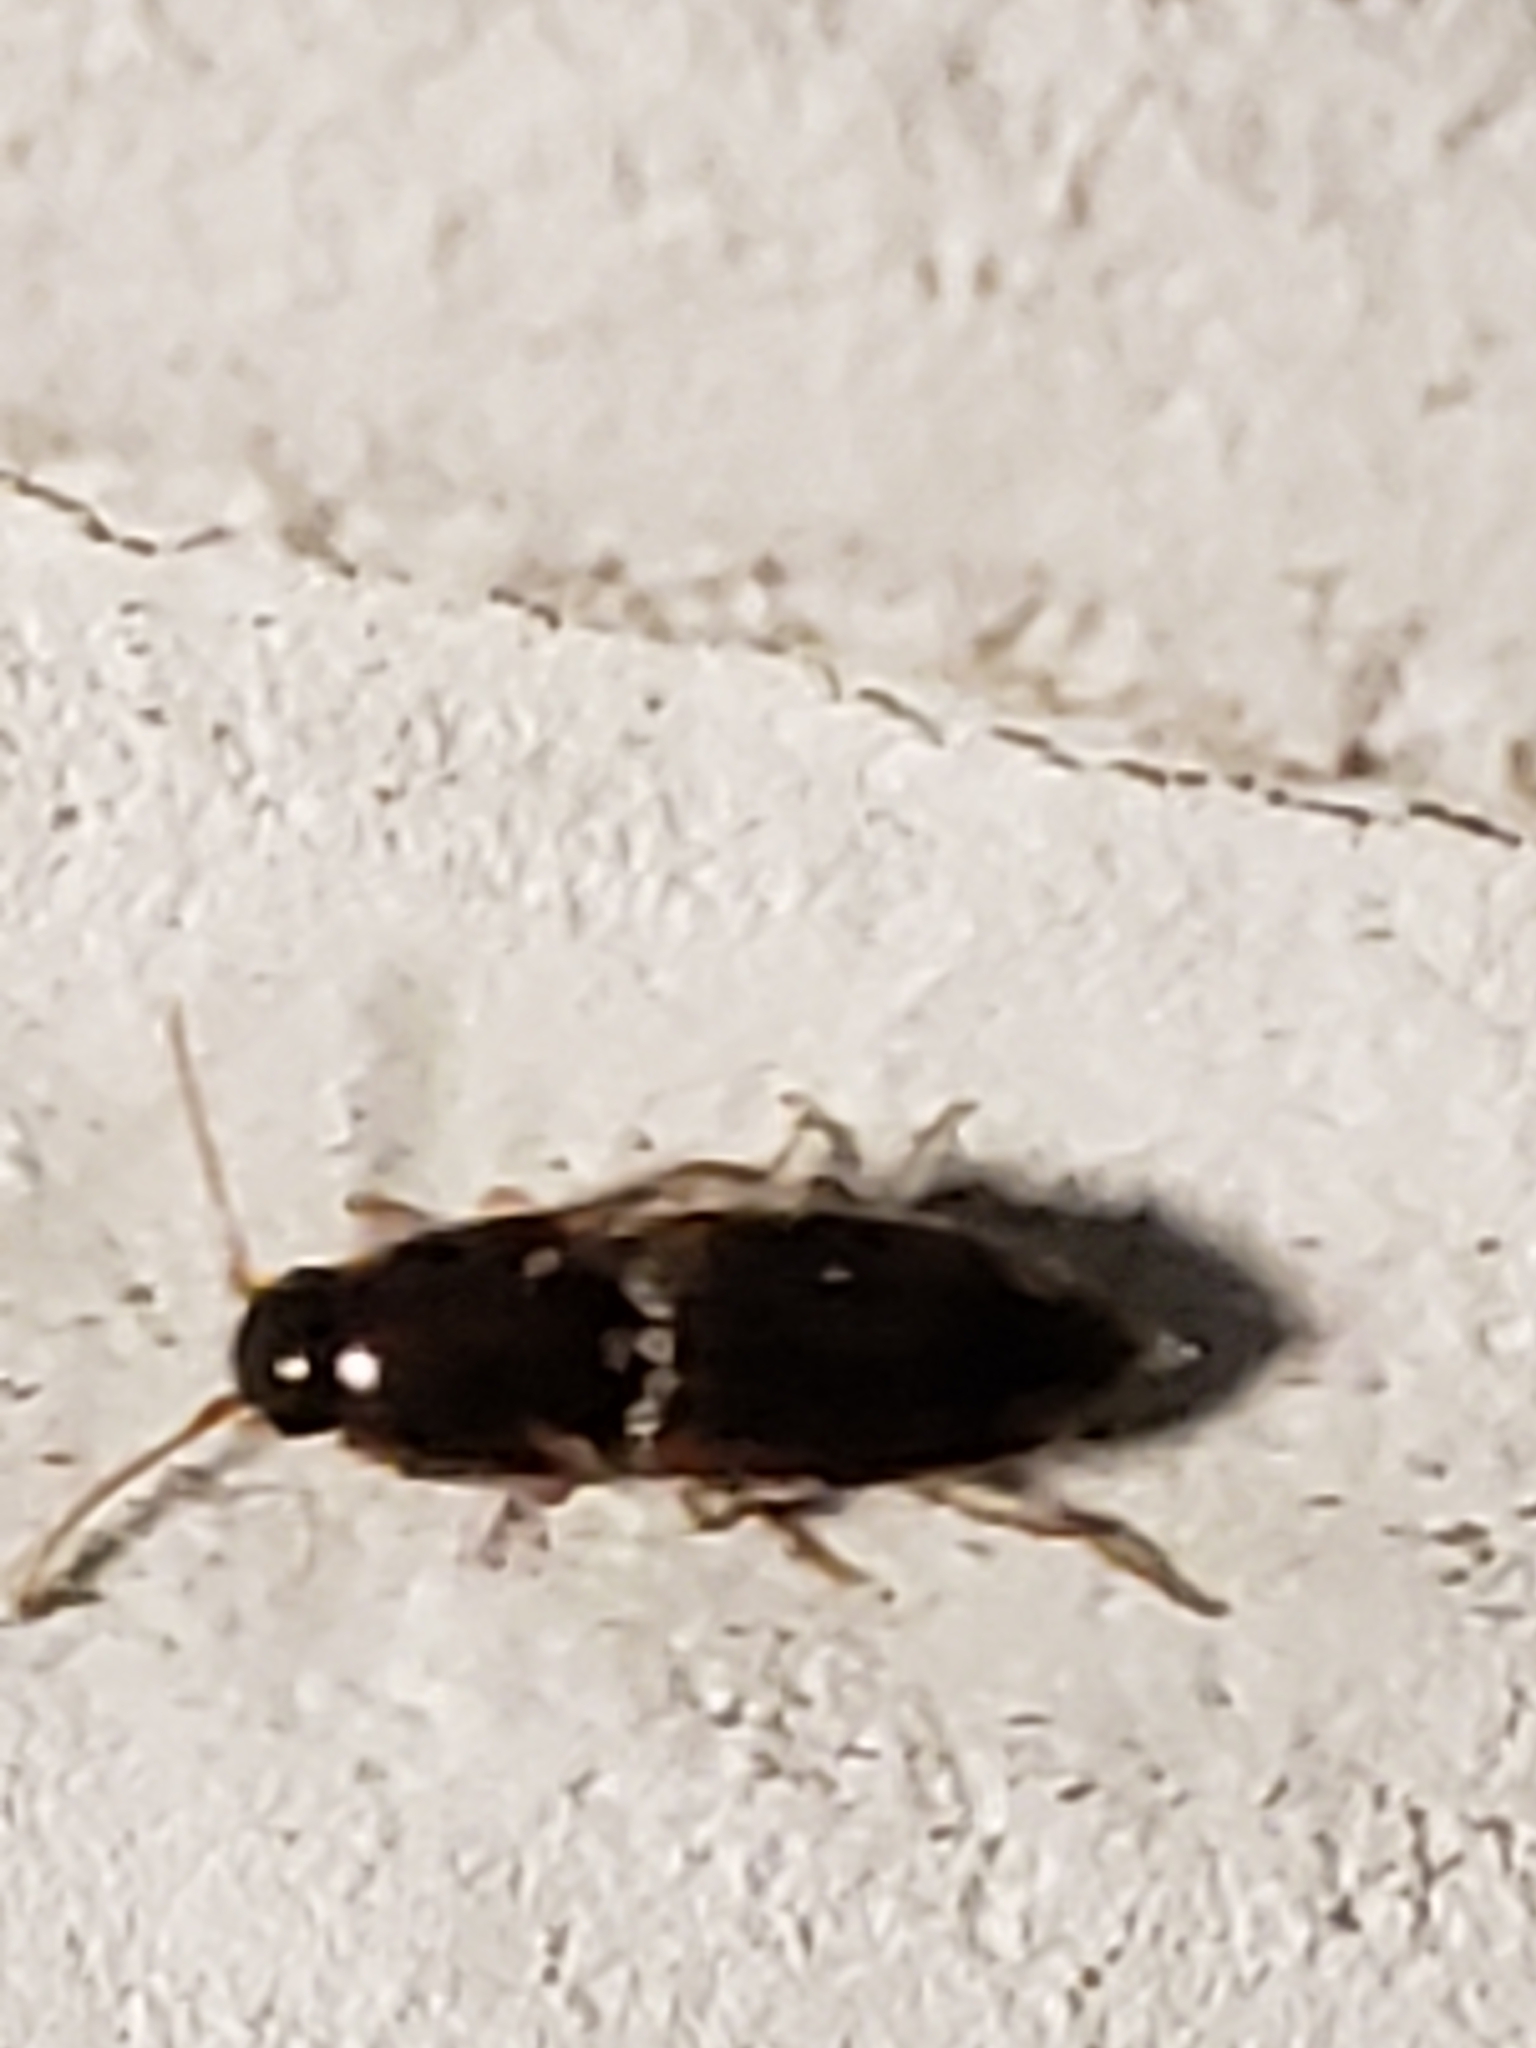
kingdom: Animalia
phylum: Arthropoda
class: Insecta
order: Coleoptera
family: Elateridae
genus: Monocrepidius
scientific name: Monocrepidius bellus
